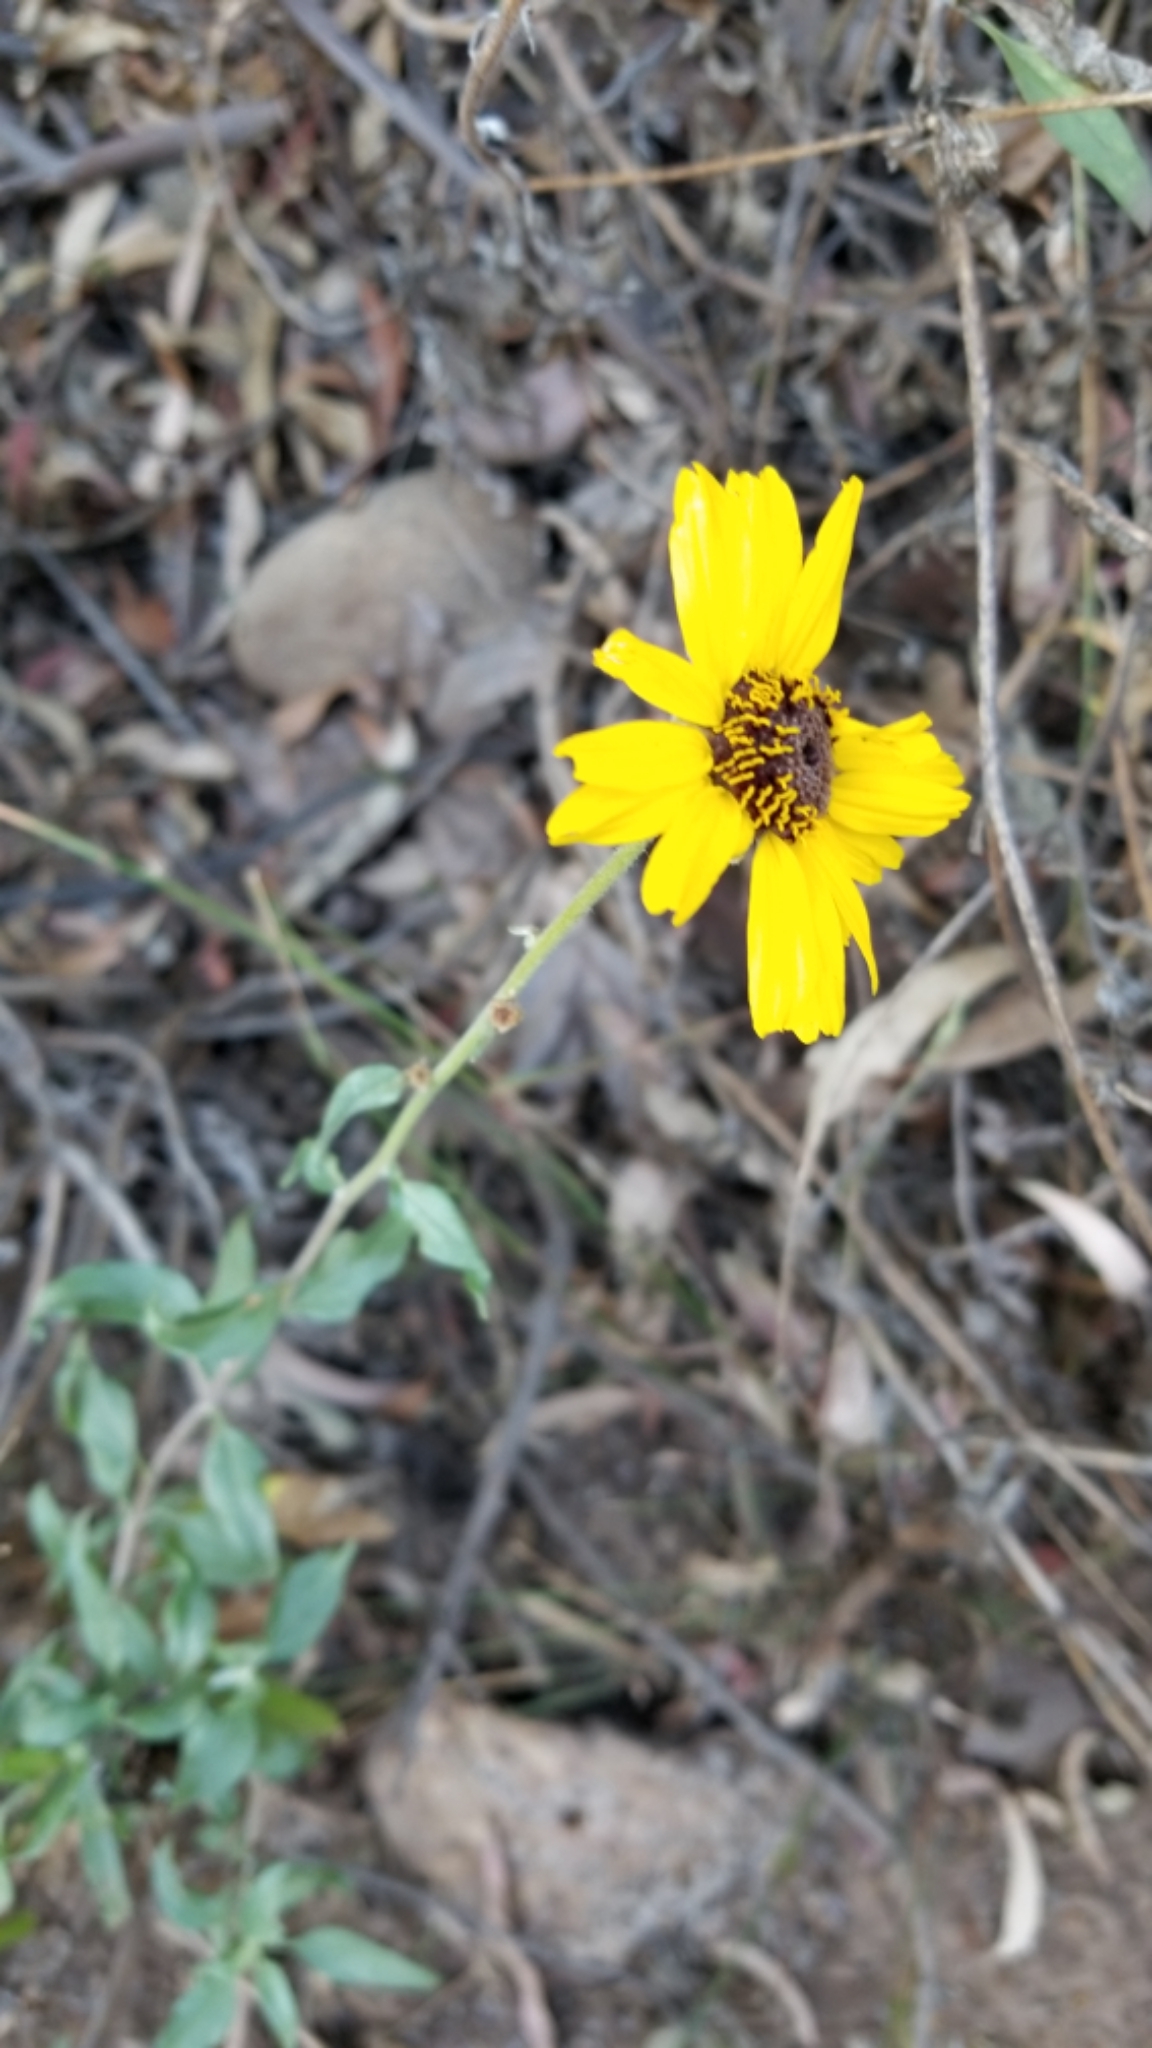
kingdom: Plantae
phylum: Tracheophyta
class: Magnoliopsida
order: Asterales
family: Asteraceae
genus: Encelia
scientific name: Encelia californica
